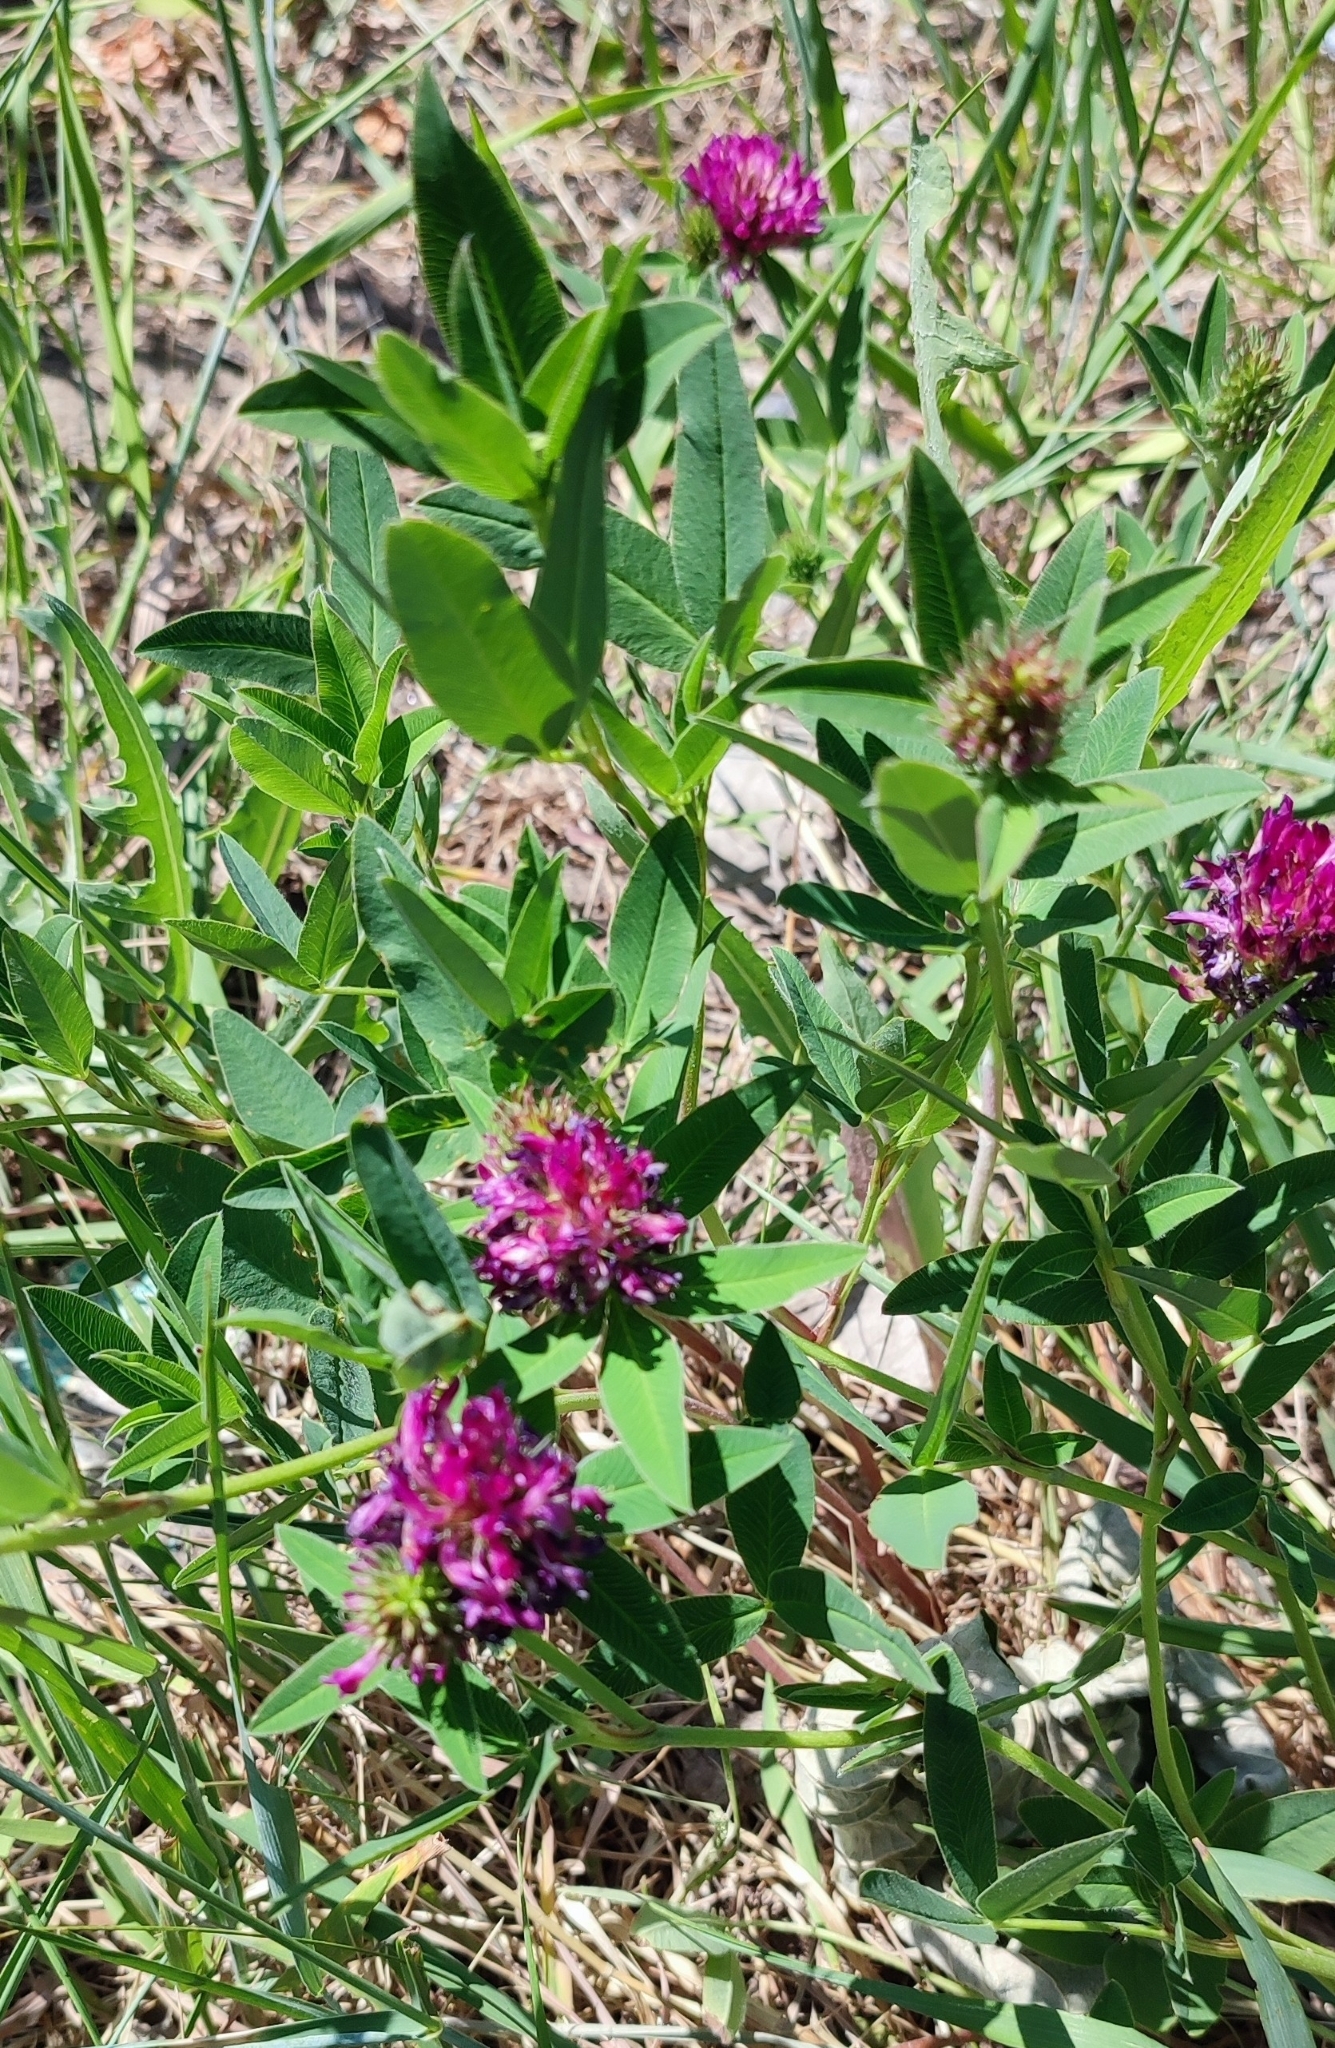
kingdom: Plantae
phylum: Tracheophyta
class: Magnoliopsida
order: Fabales
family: Fabaceae
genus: Trifolium
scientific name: Trifolium medium
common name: Zigzag clover
